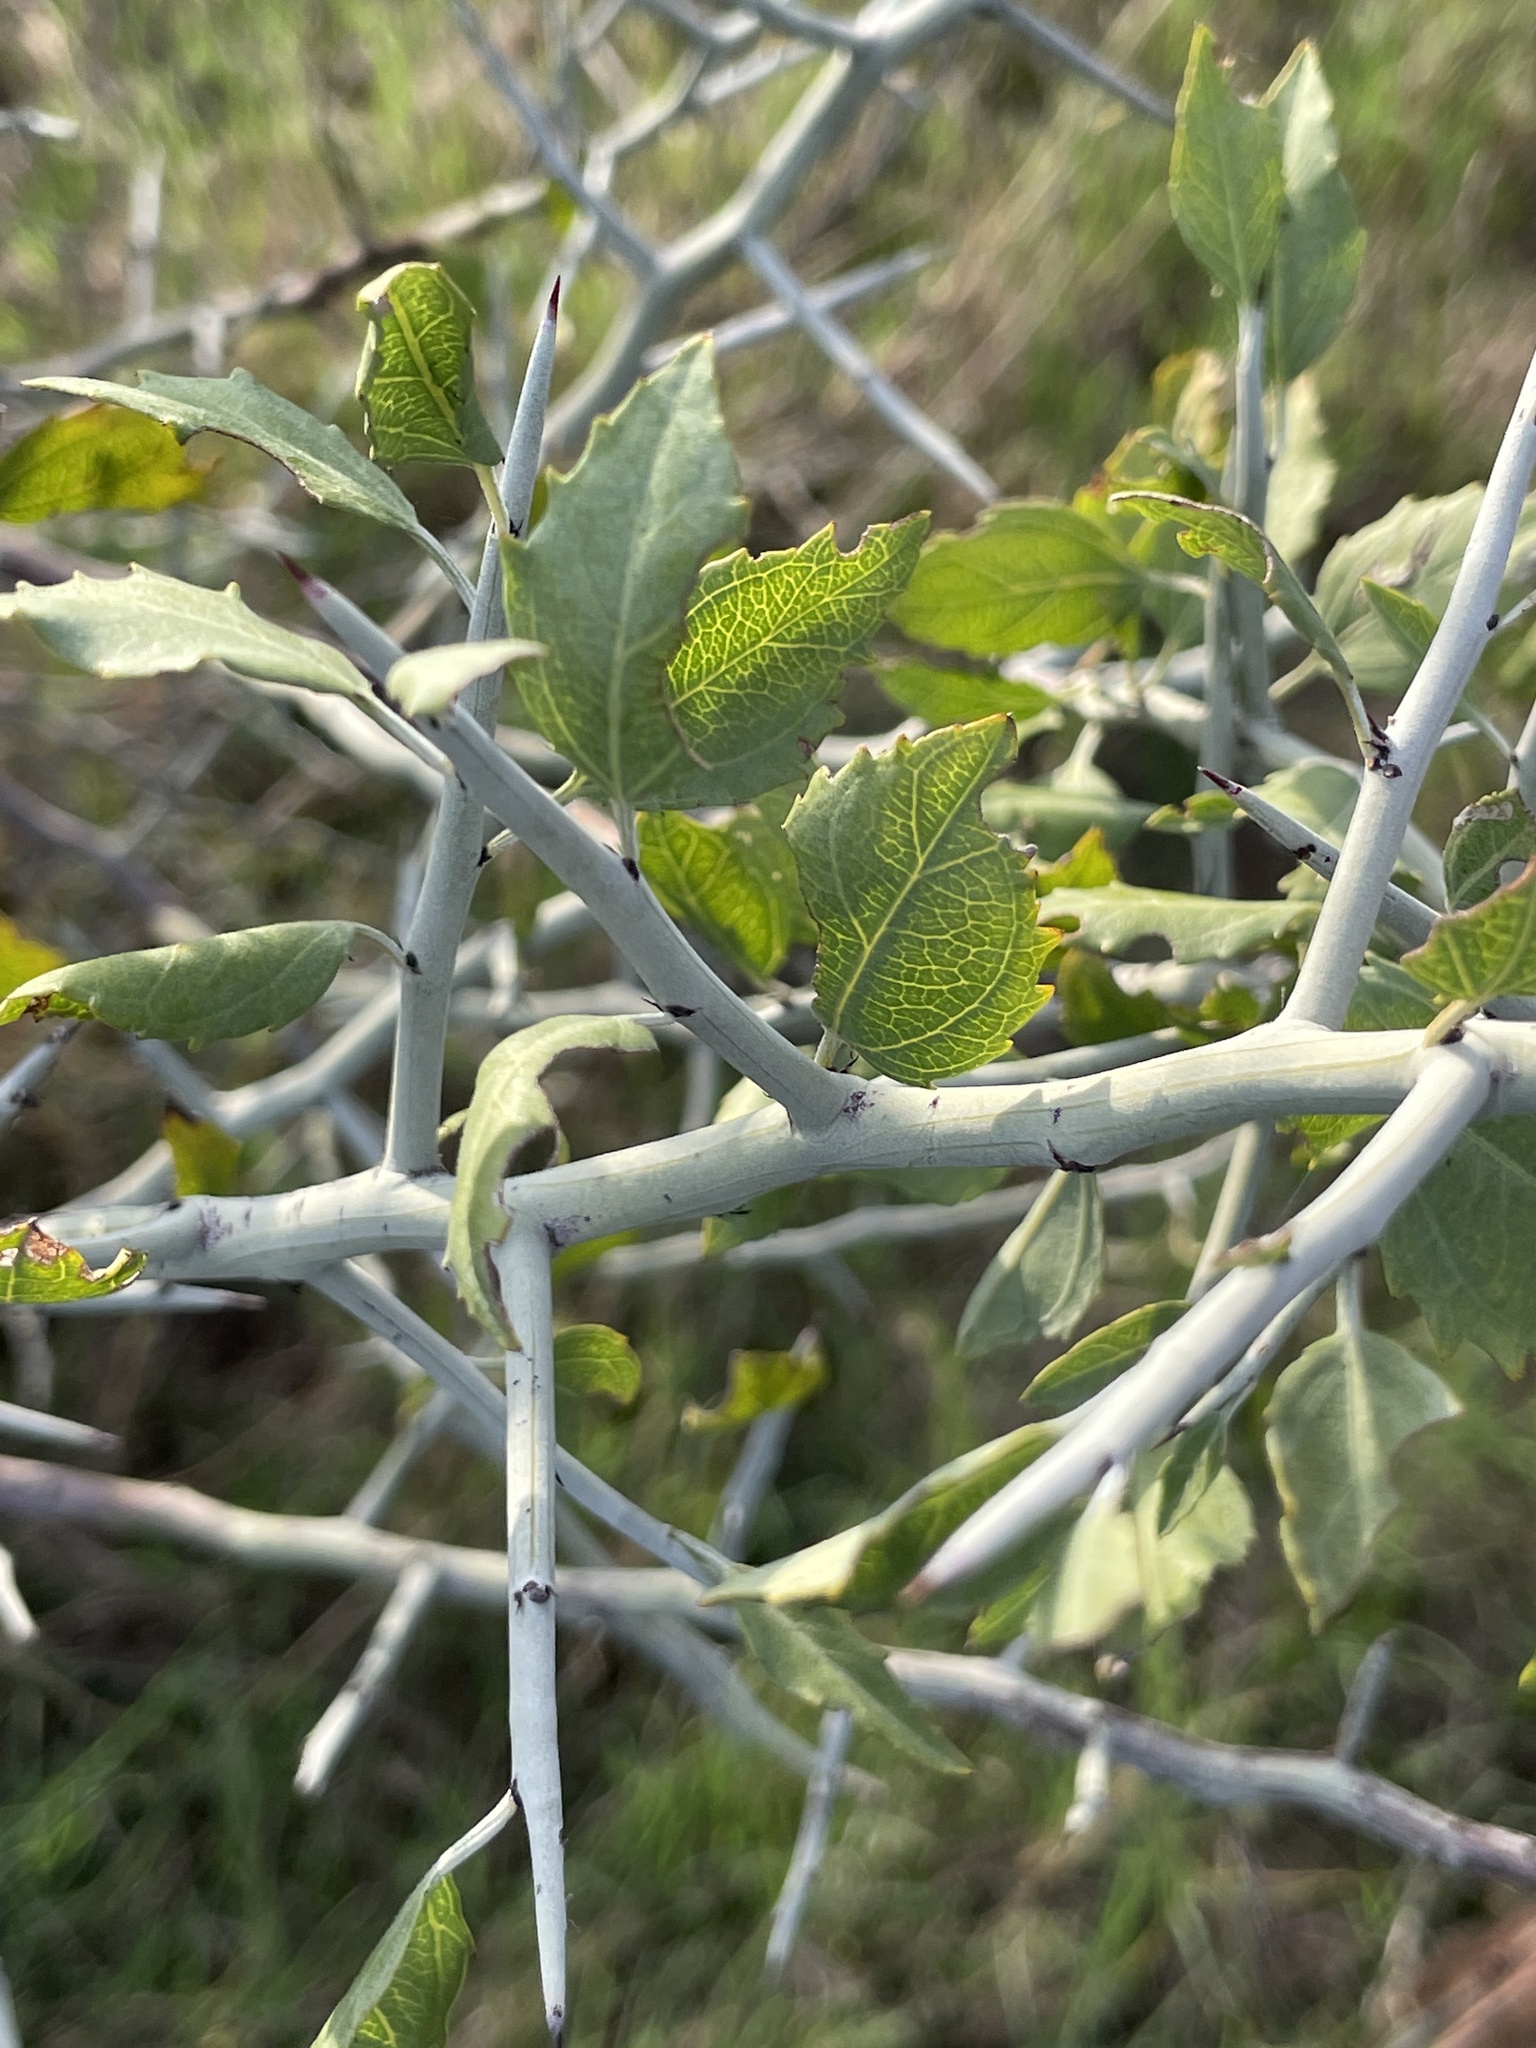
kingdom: Plantae
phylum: Tracheophyta
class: Magnoliopsida
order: Rosales
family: Rhamnaceae
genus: Sarcomphalus
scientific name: Sarcomphalus obtusifolius
